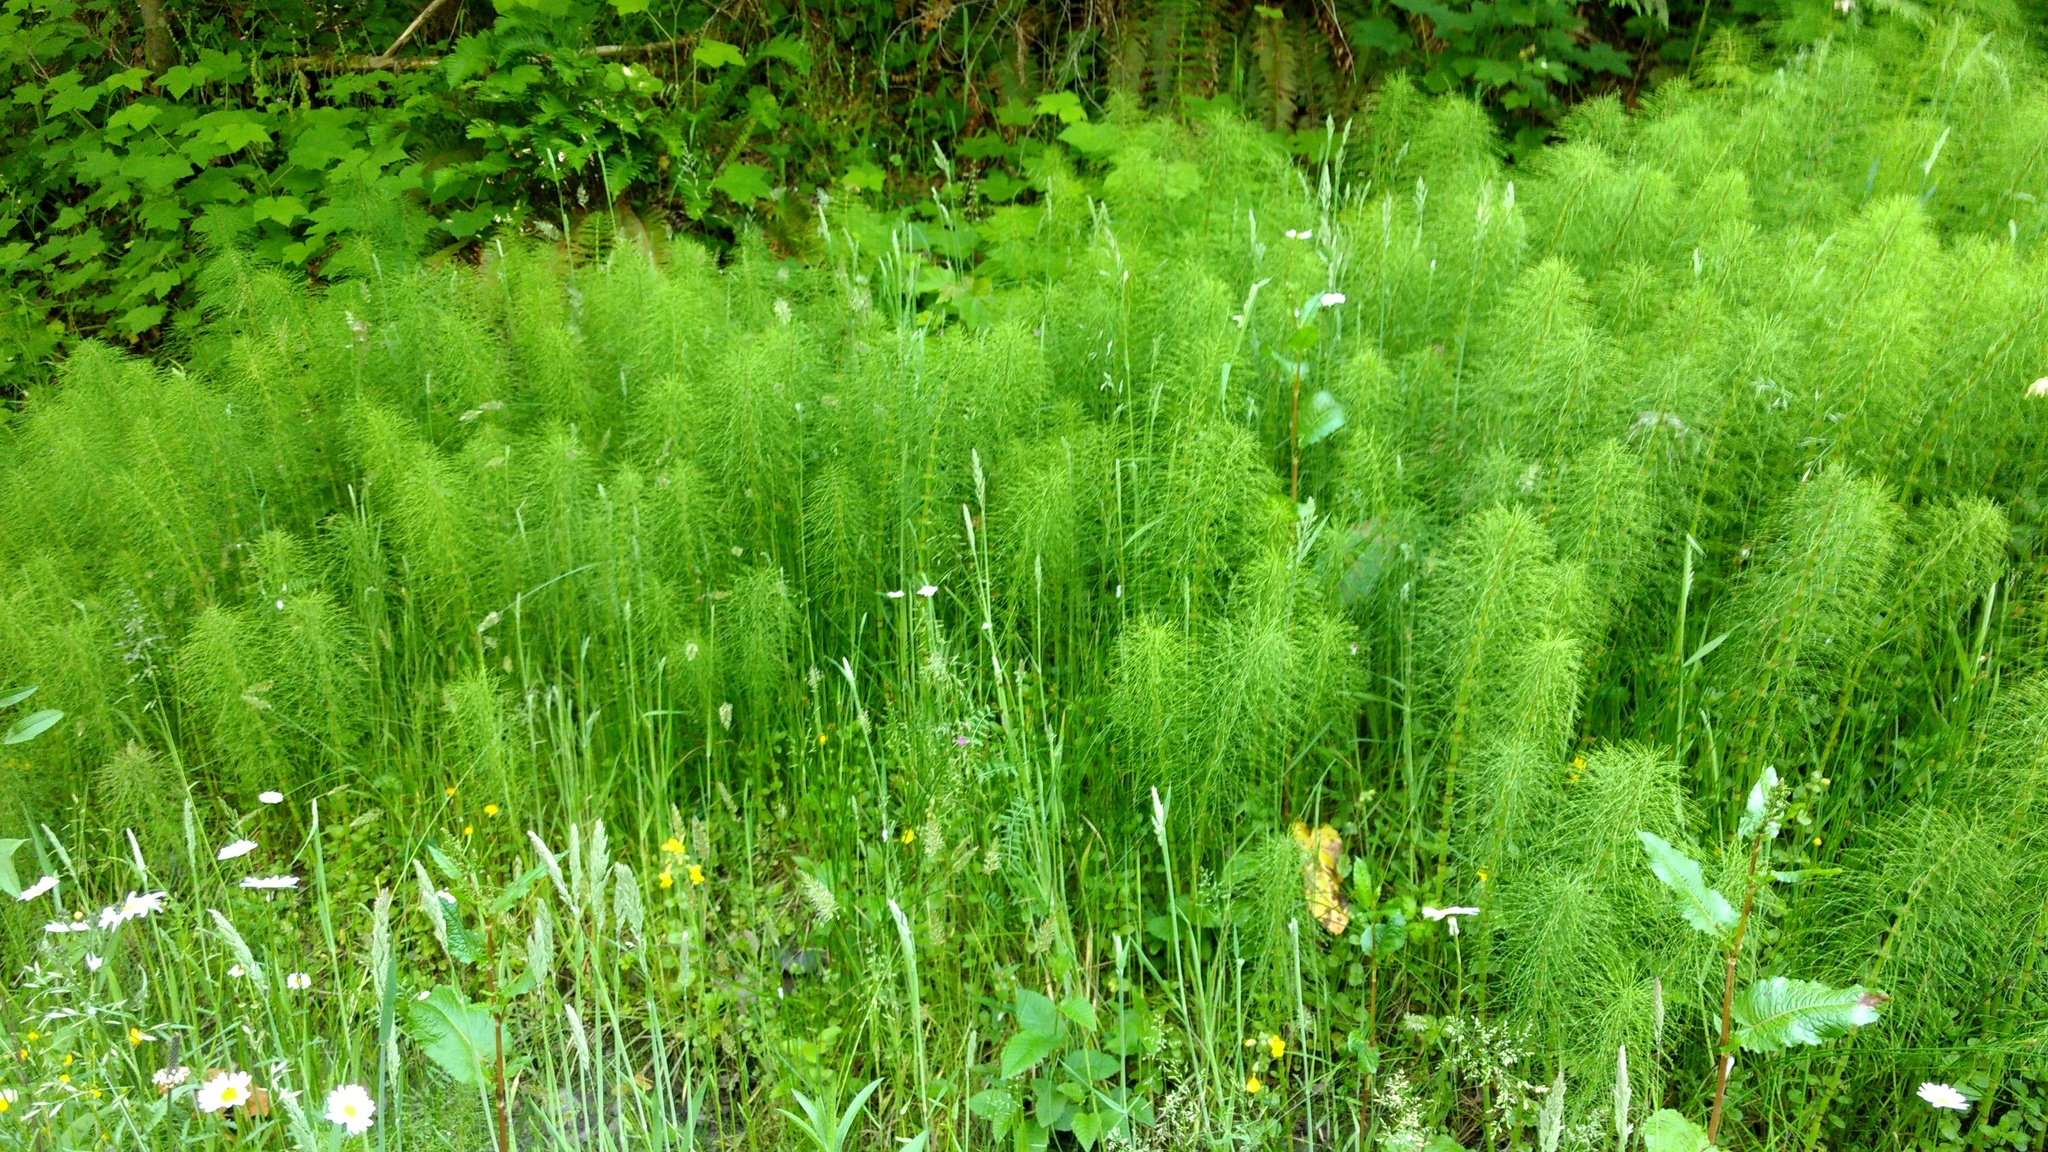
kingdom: Plantae
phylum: Tracheophyta
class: Polypodiopsida
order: Equisetales
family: Equisetaceae
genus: Equisetum
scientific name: Equisetum braunii
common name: Braun's horsetail
